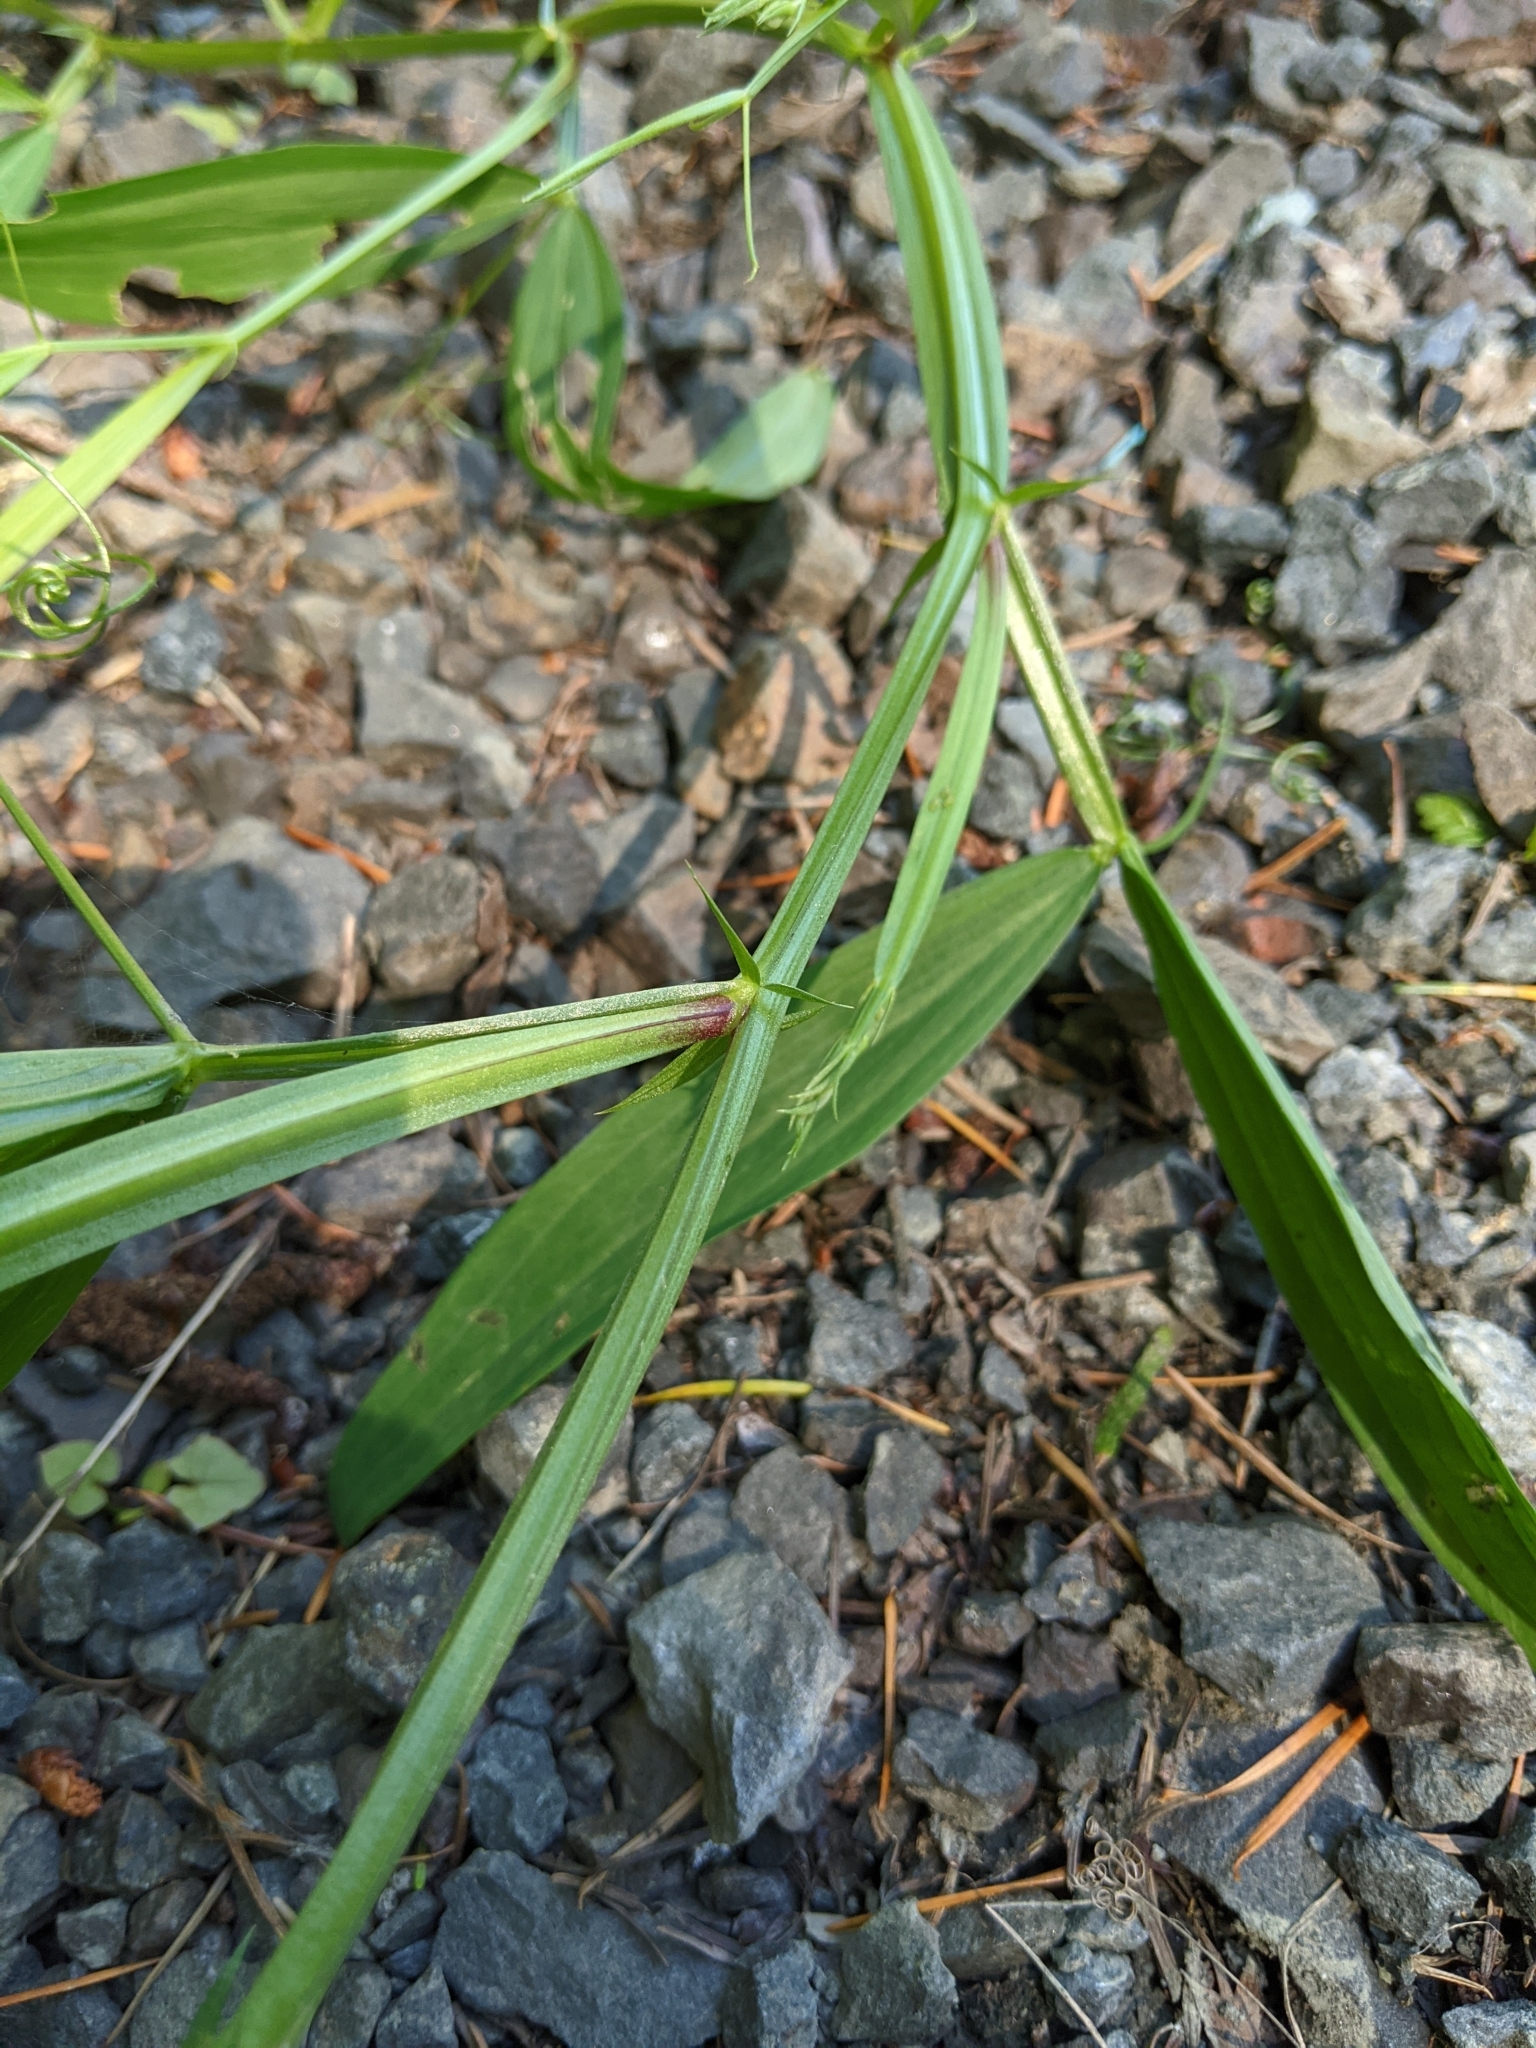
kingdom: Plantae
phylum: Tracheophyta
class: Magnoliopsida
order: Fabales
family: Fabaceae
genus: Lathyrus
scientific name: Lathyrus sylvestris
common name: Flat pea
